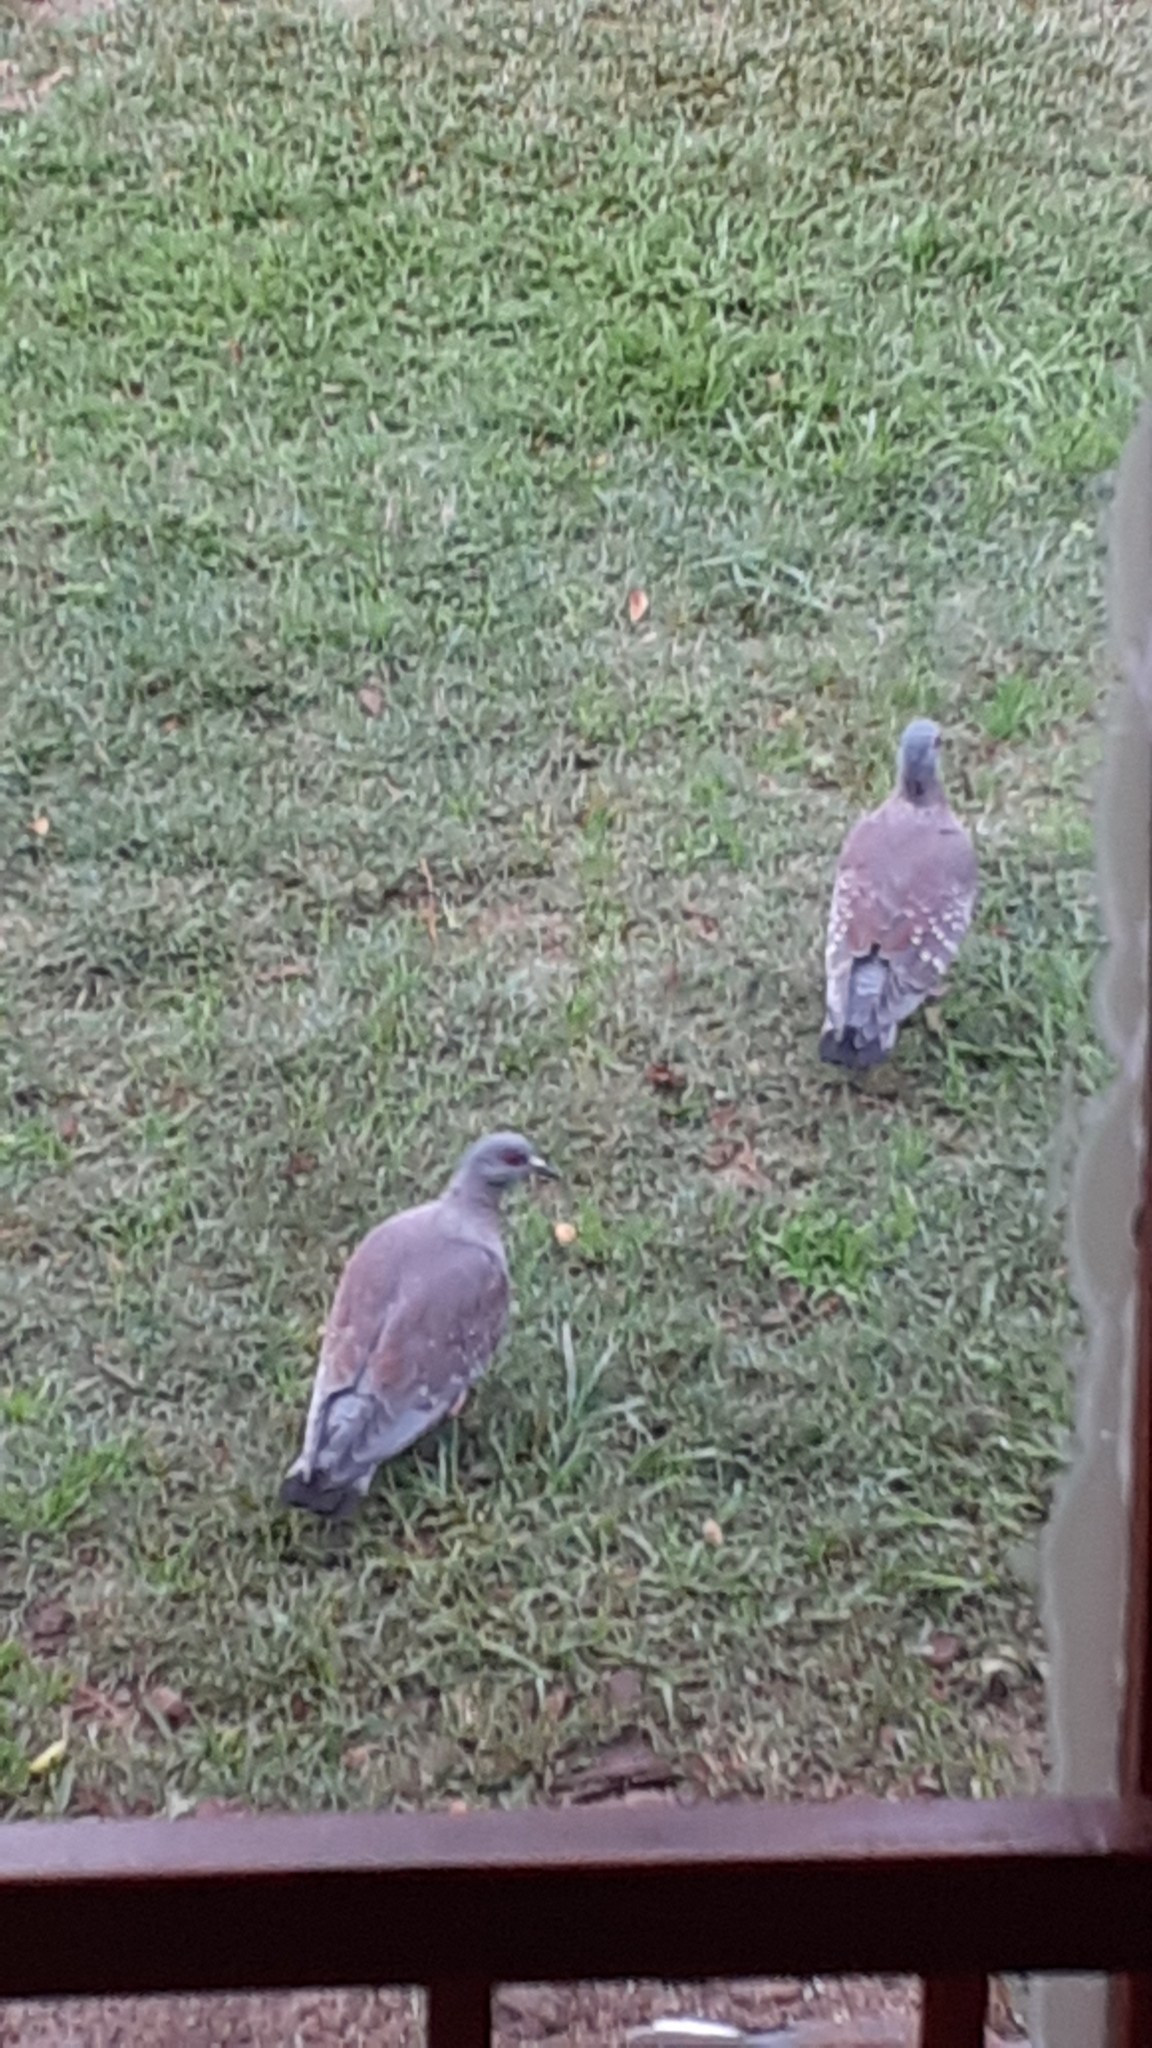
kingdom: Animalia
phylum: Chordata
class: Aves
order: Columbiformes
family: Columbidae
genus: Columba
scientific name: Columba guinea
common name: Speckled pigeon
